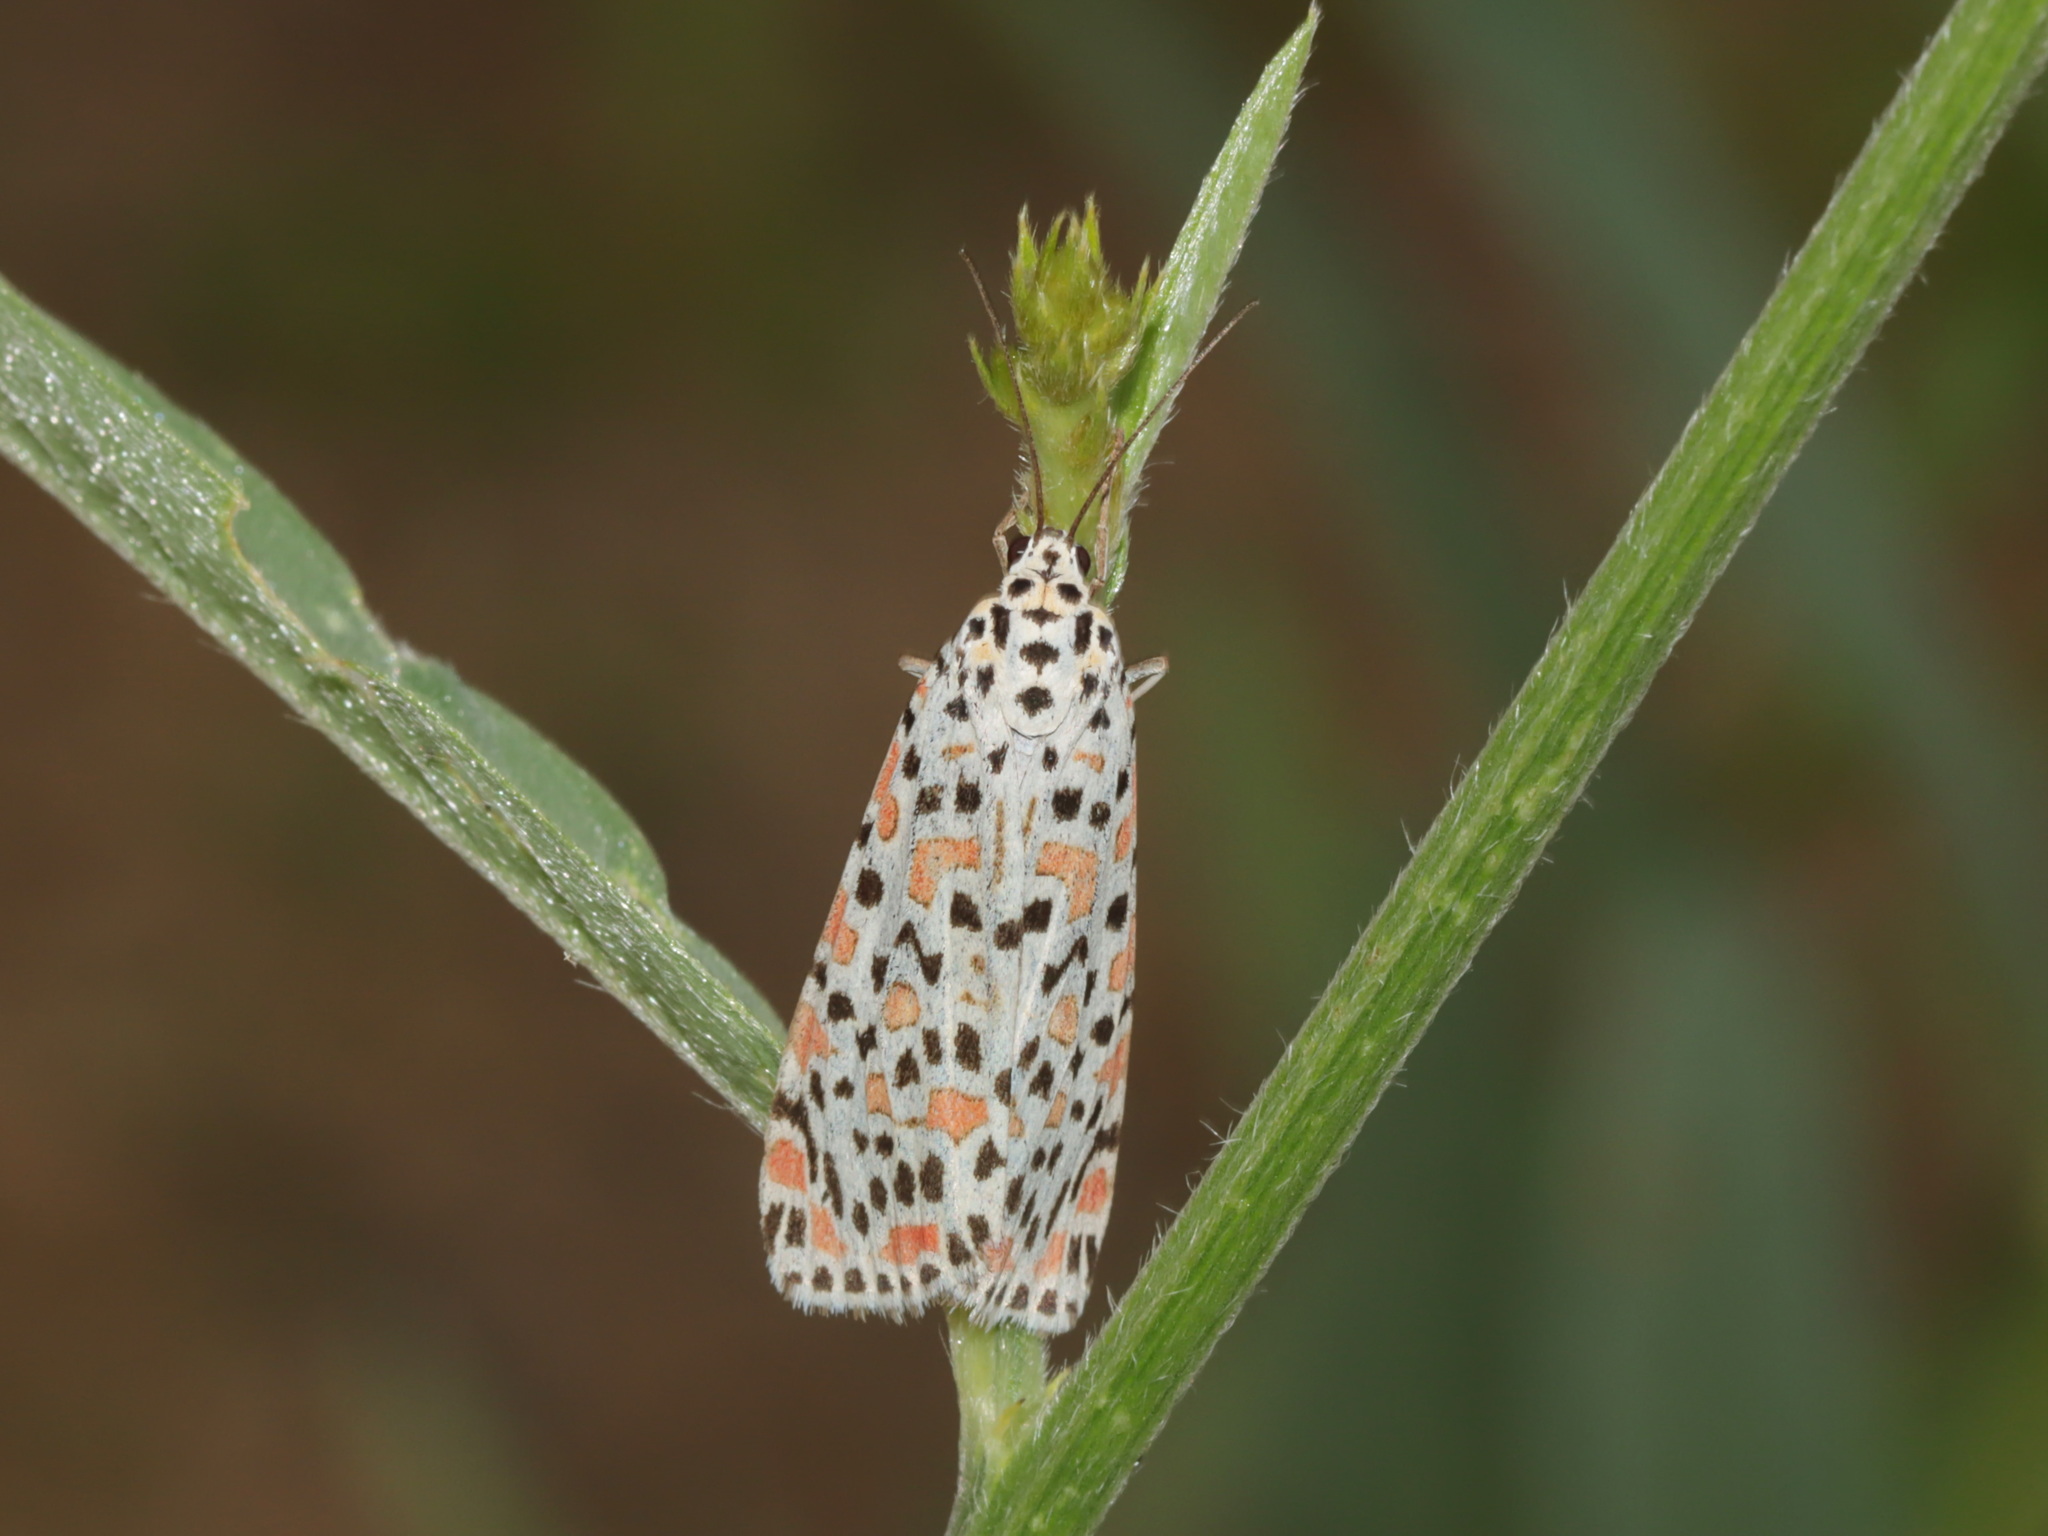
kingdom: Animalia
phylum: Arthropoda
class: Insecta
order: Lepidoptera
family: Erebidae
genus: Utetheisa
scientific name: Utetheisa lotrix
